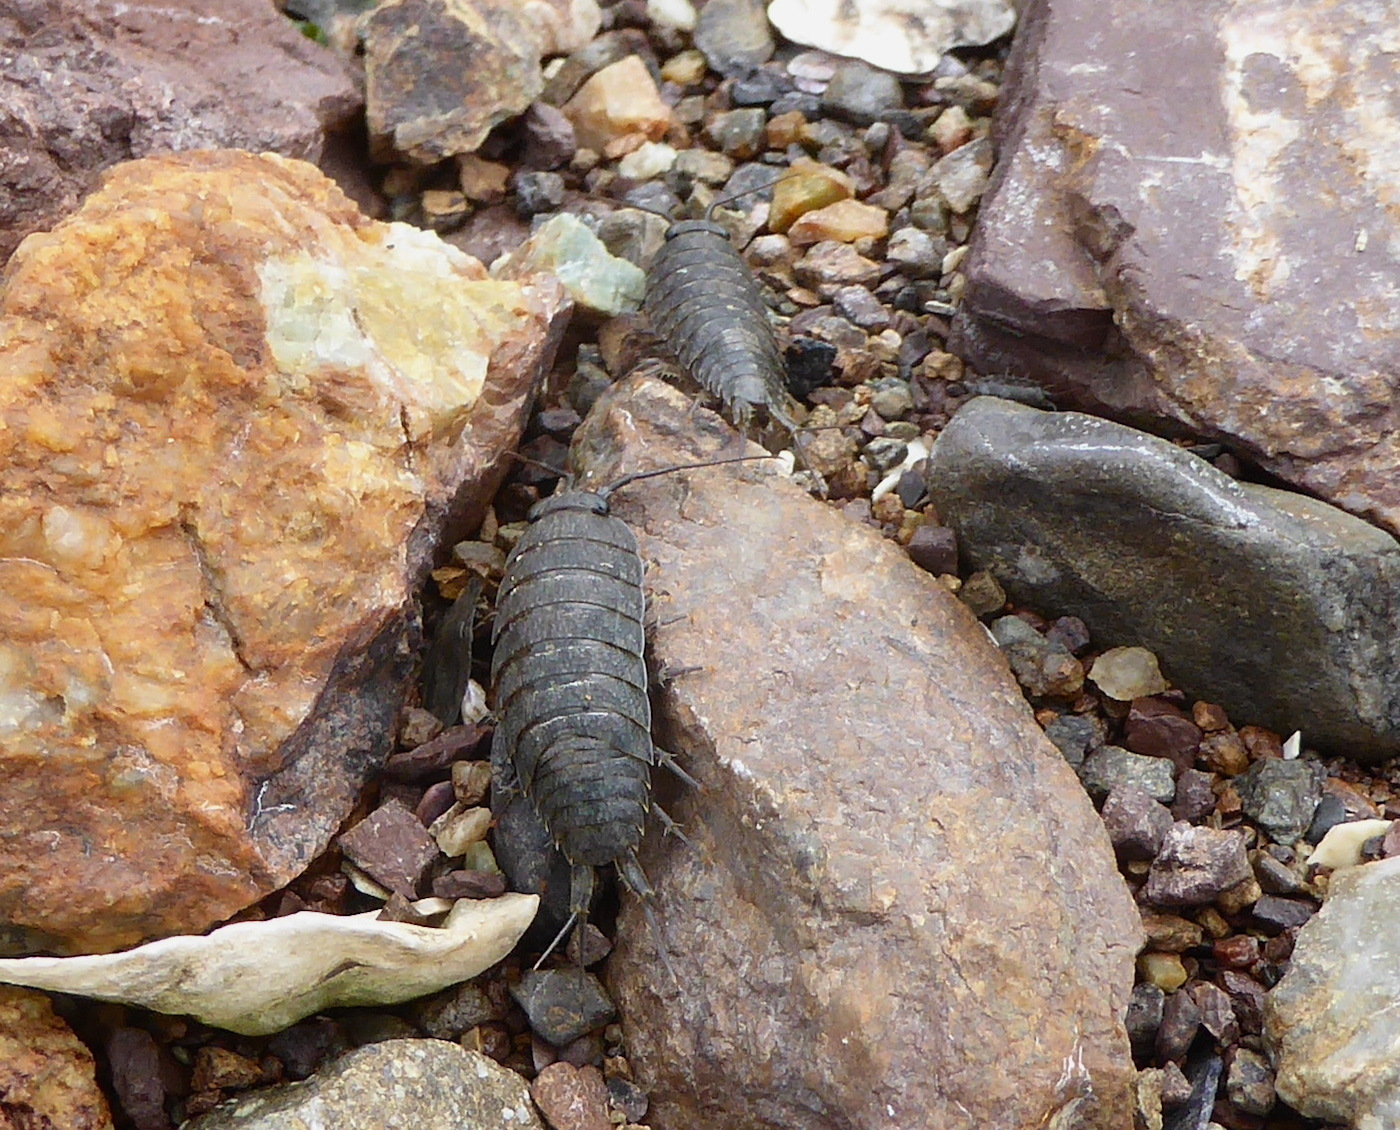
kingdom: Animalia
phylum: Arthropoda
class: Malacostraca
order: Isopoda
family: Ligiidae
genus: Ligia
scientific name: Ligia occidentalis
